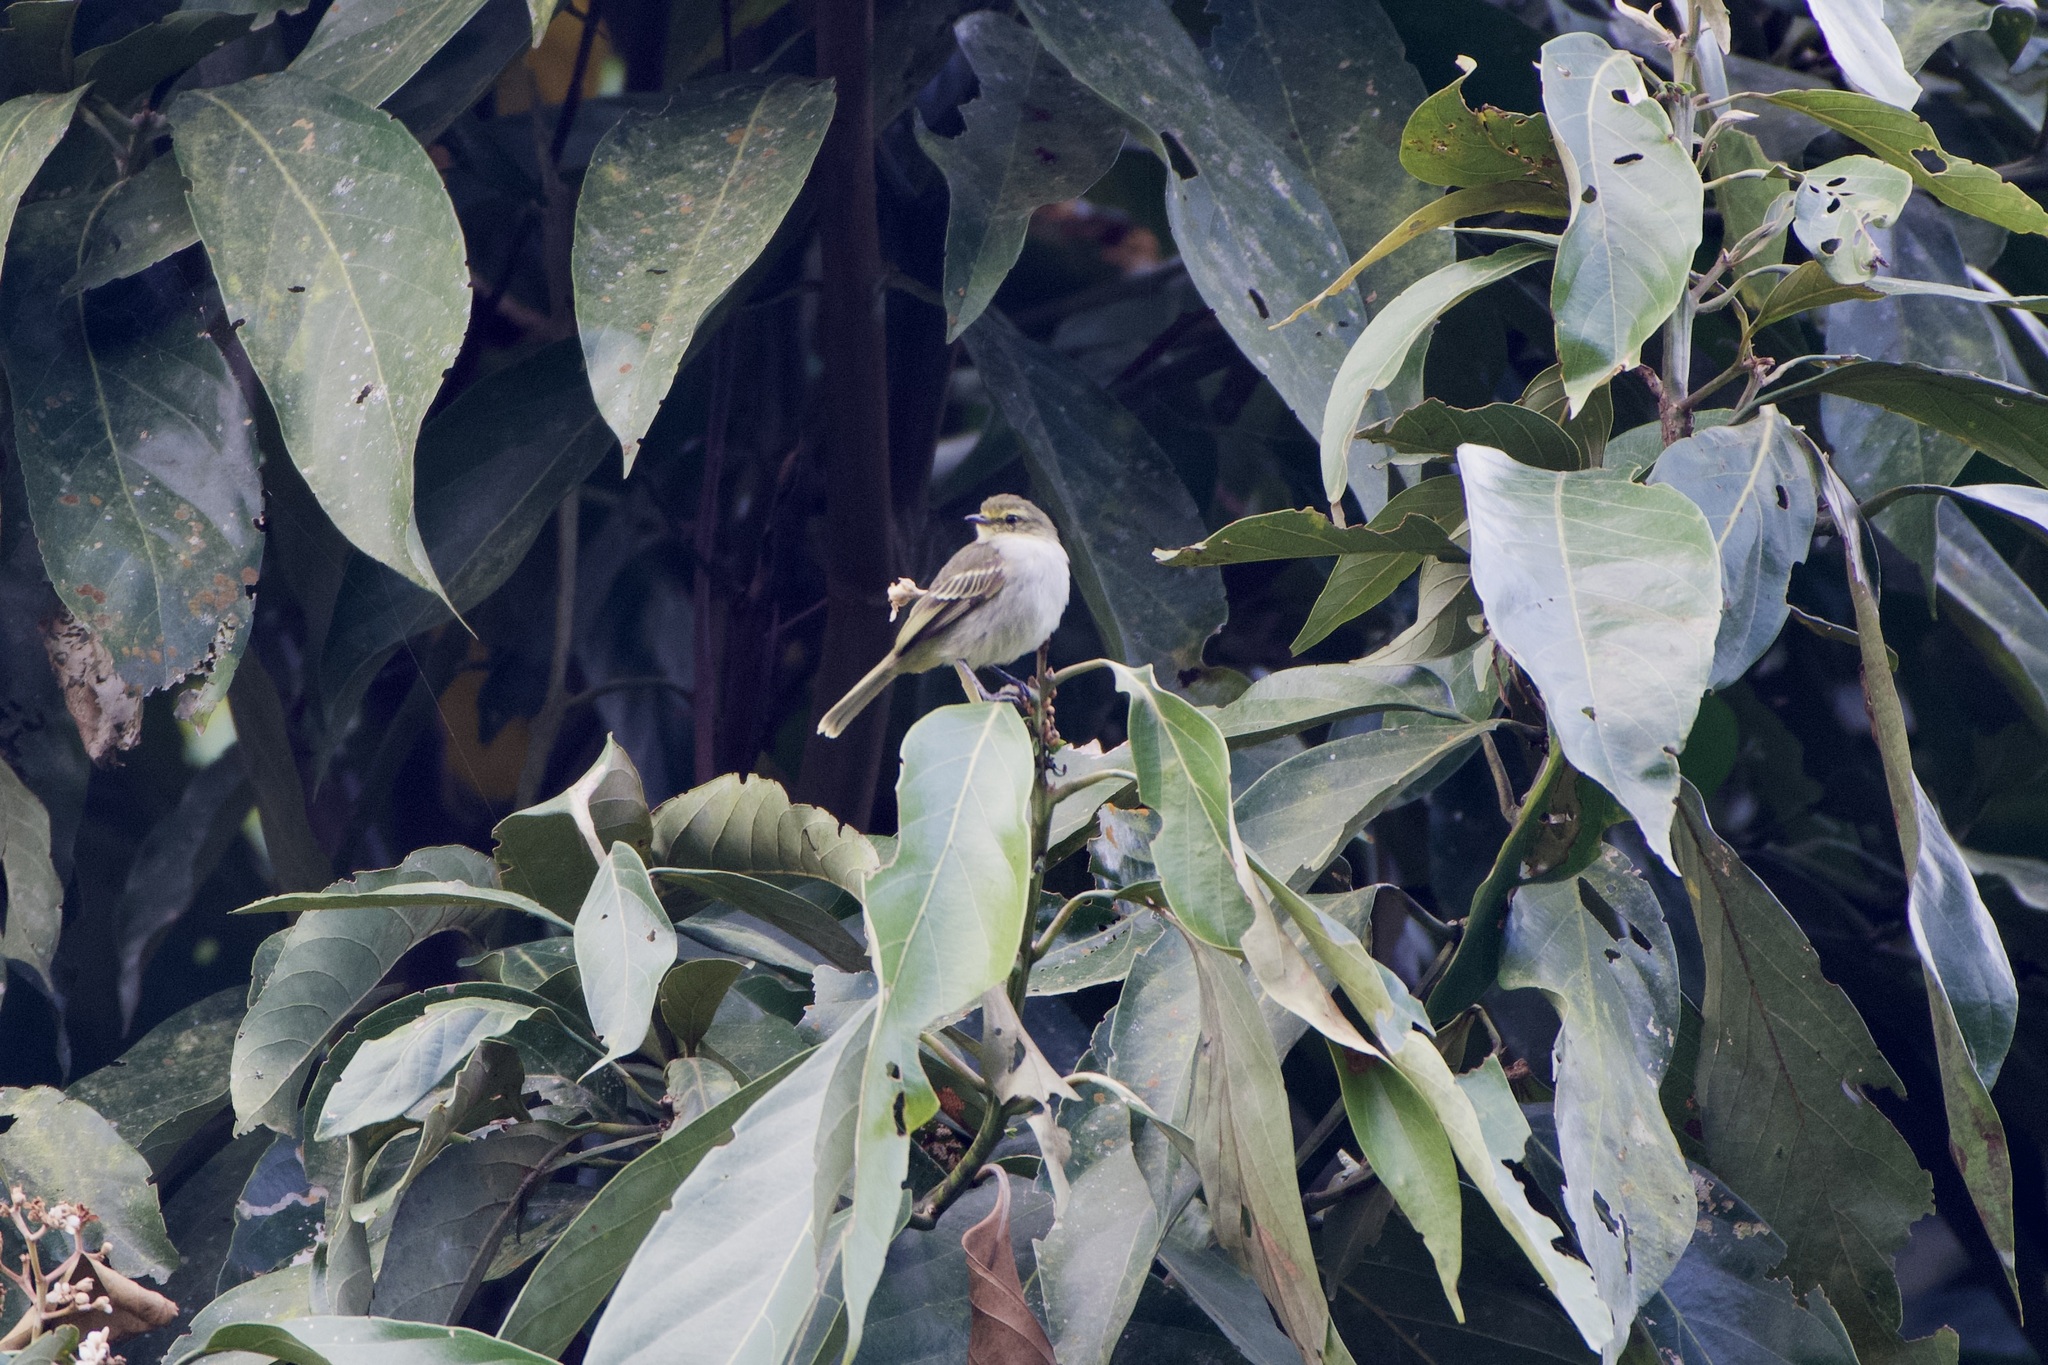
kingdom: Animalia
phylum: Chordata
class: Aves
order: Passeriformes
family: Tyrannidae
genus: Zimmerius
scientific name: Zimmerius chrysops
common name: Golden-faced tyrannulet
